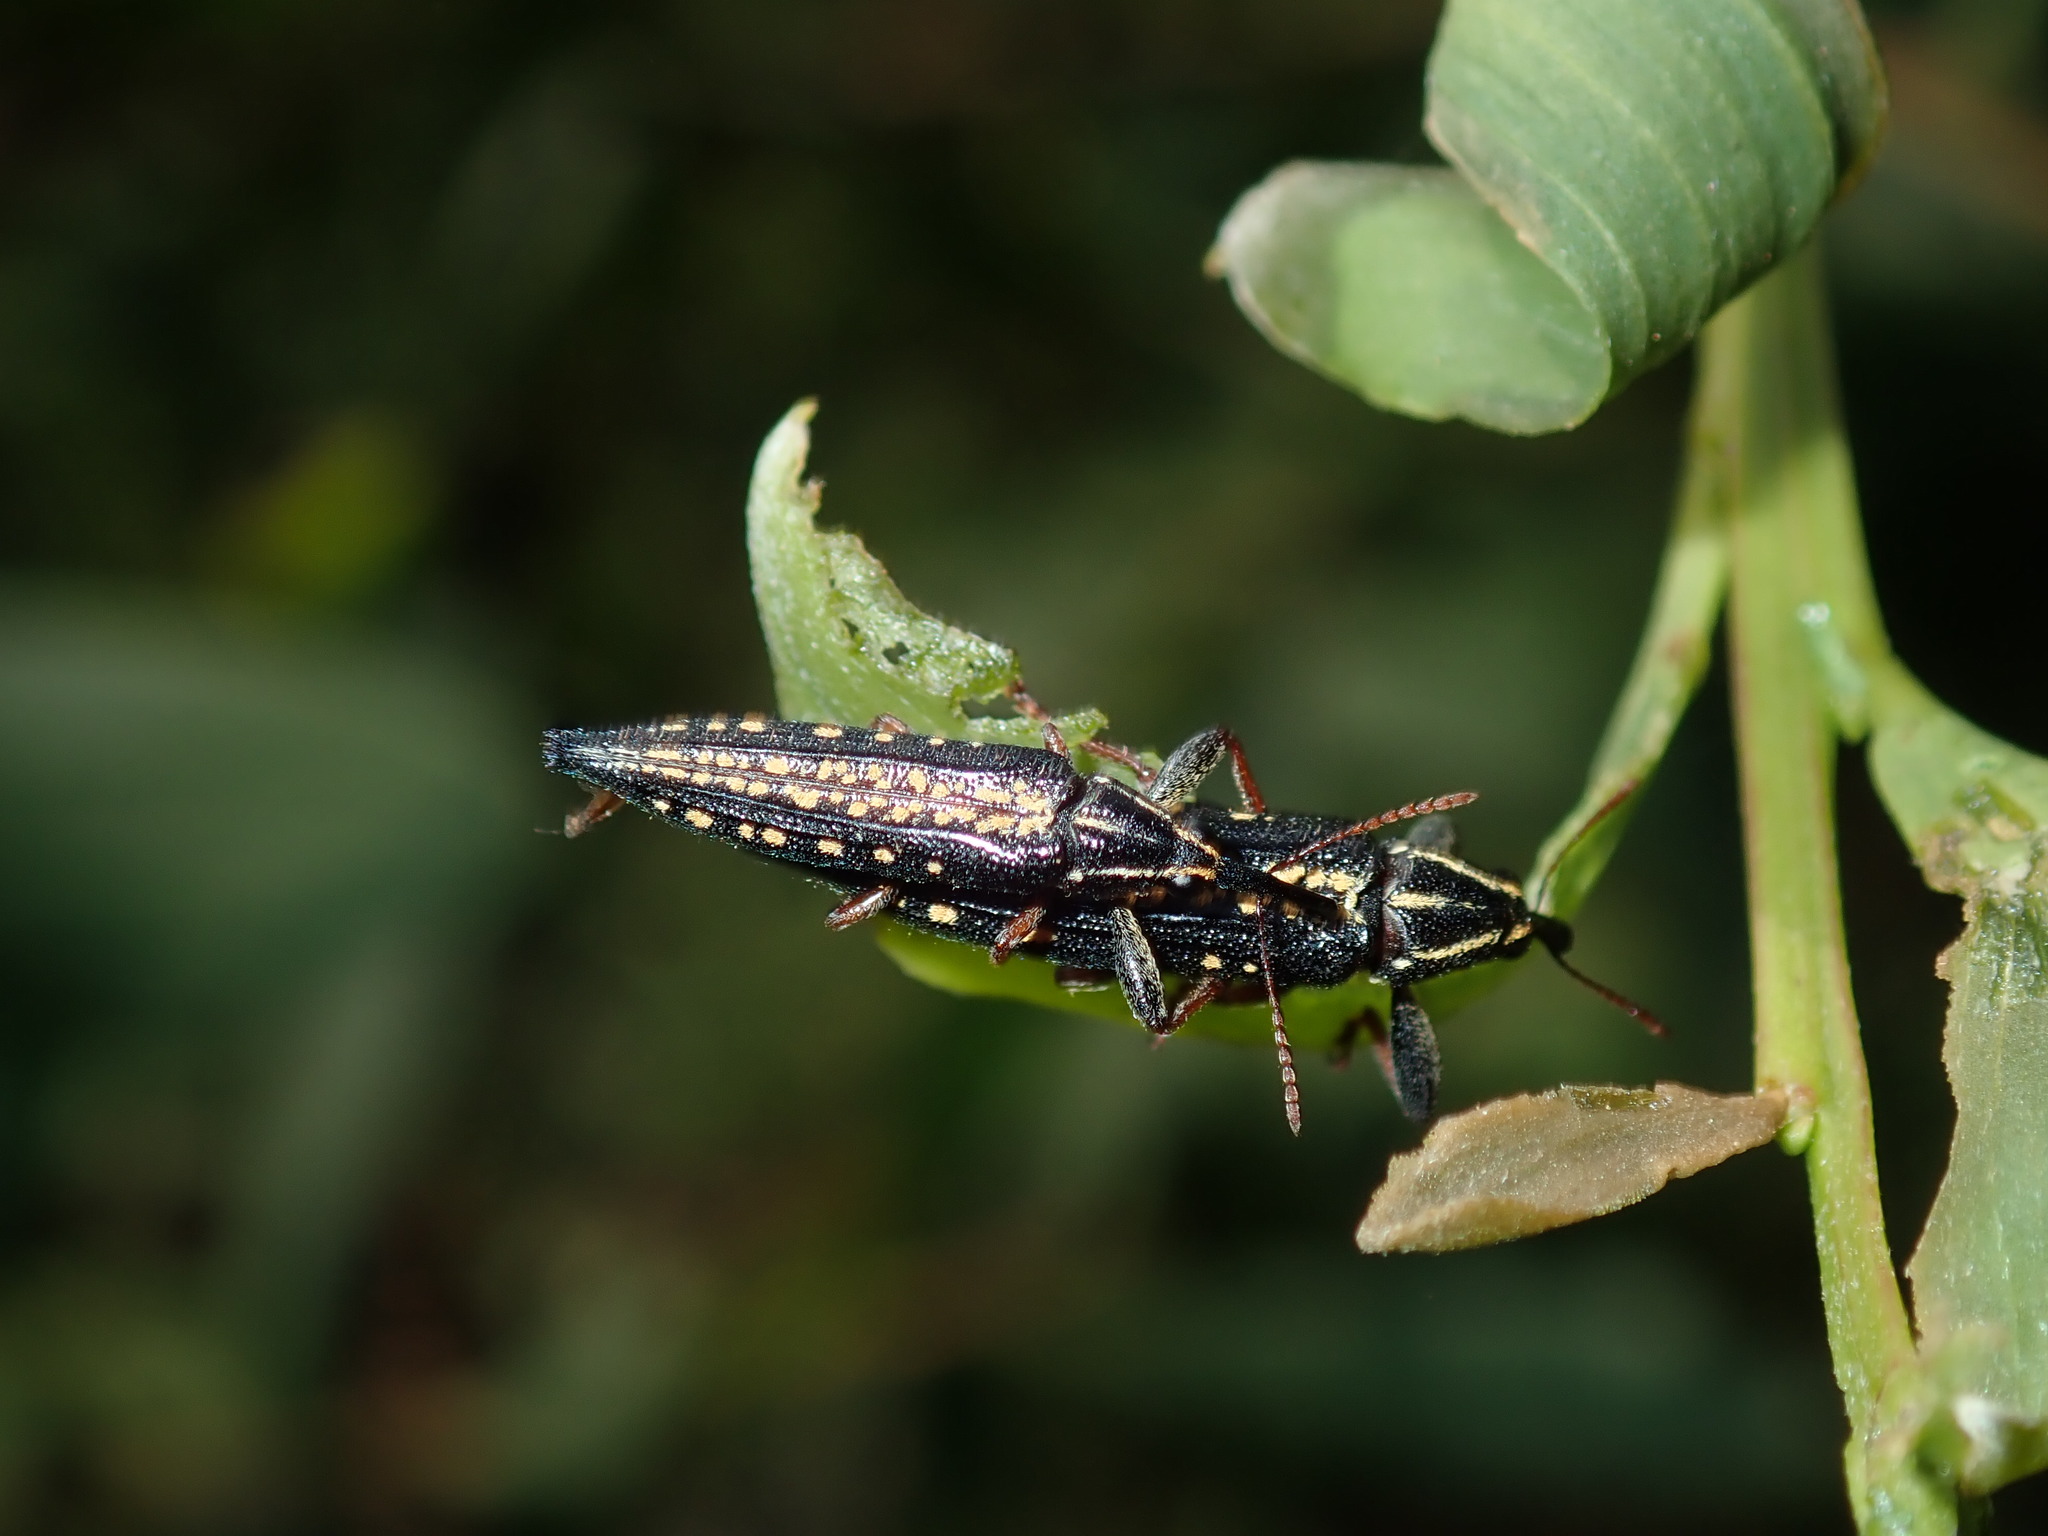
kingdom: Animalia
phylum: Arthropoda
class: Insecta
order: Coleoptera
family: Belidae
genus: Rhinotia
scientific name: Rhinotia lineata
